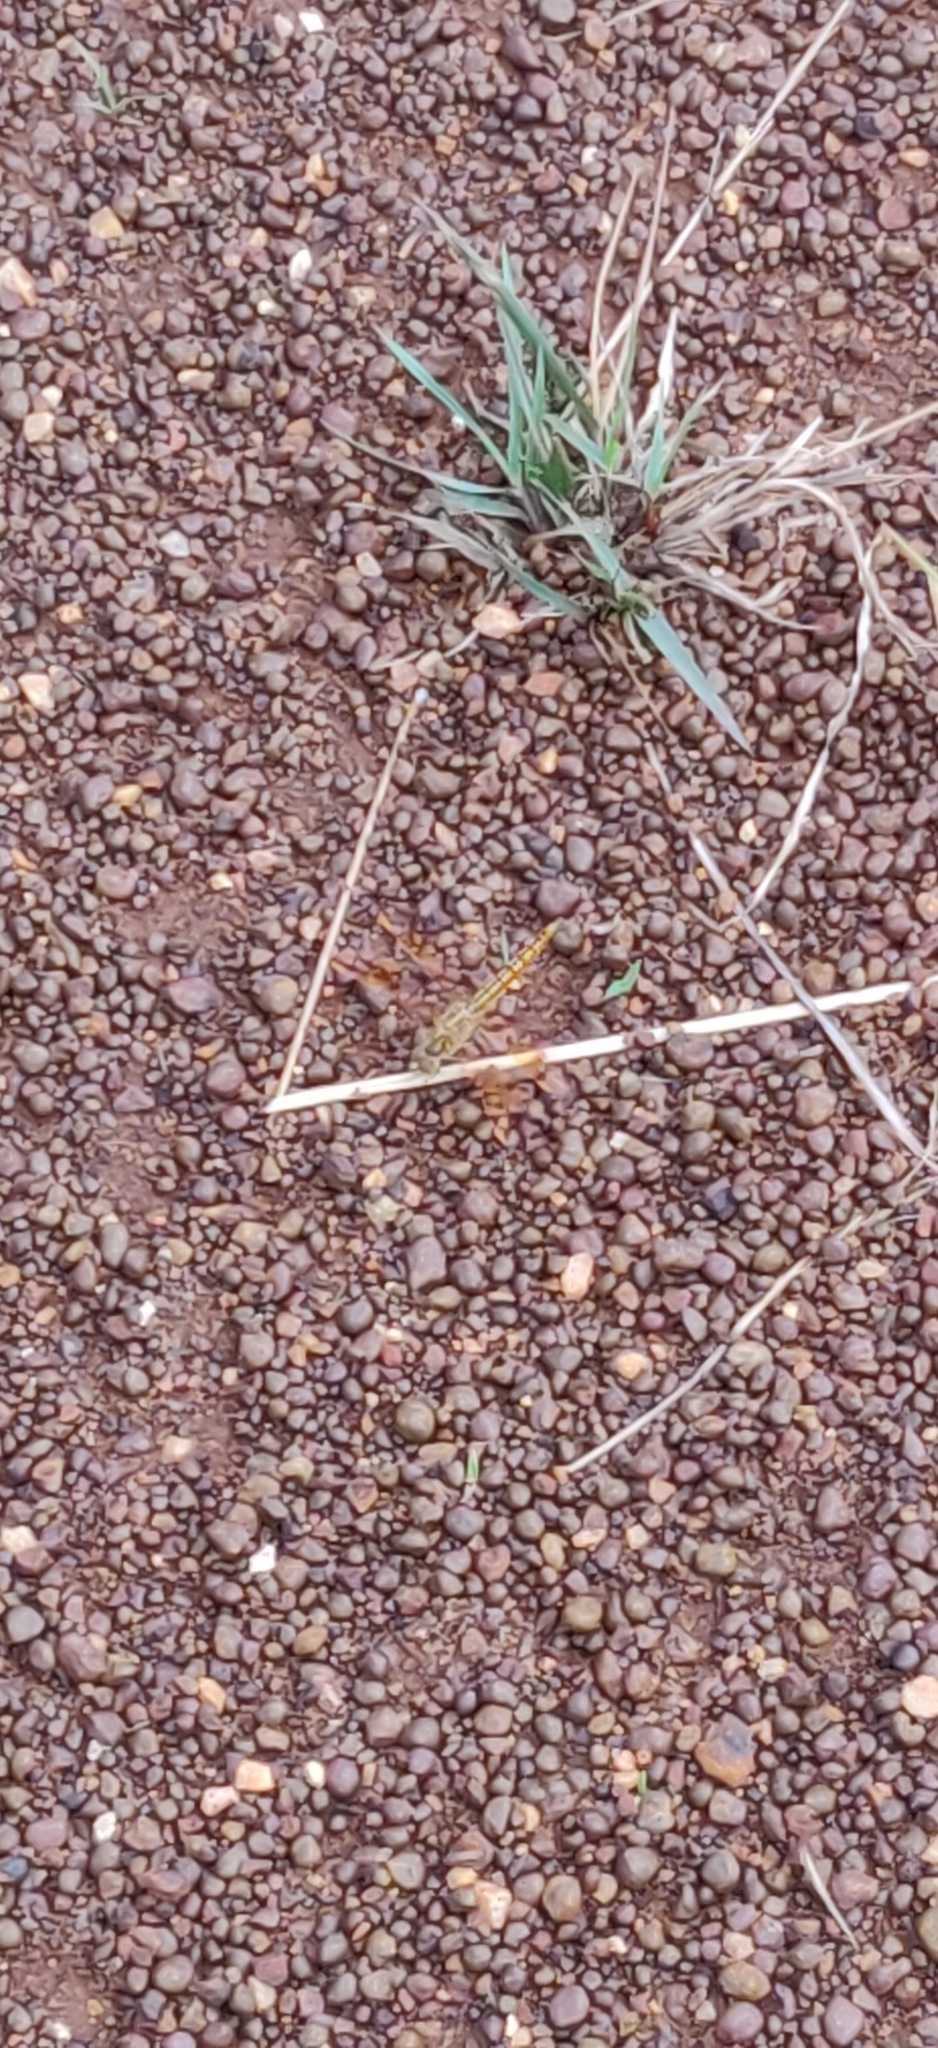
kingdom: Animalia
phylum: Arthropoda
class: Insecta
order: Odonata
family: Libellulidae
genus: Brachythemis
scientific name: Brachythemis contaminata
